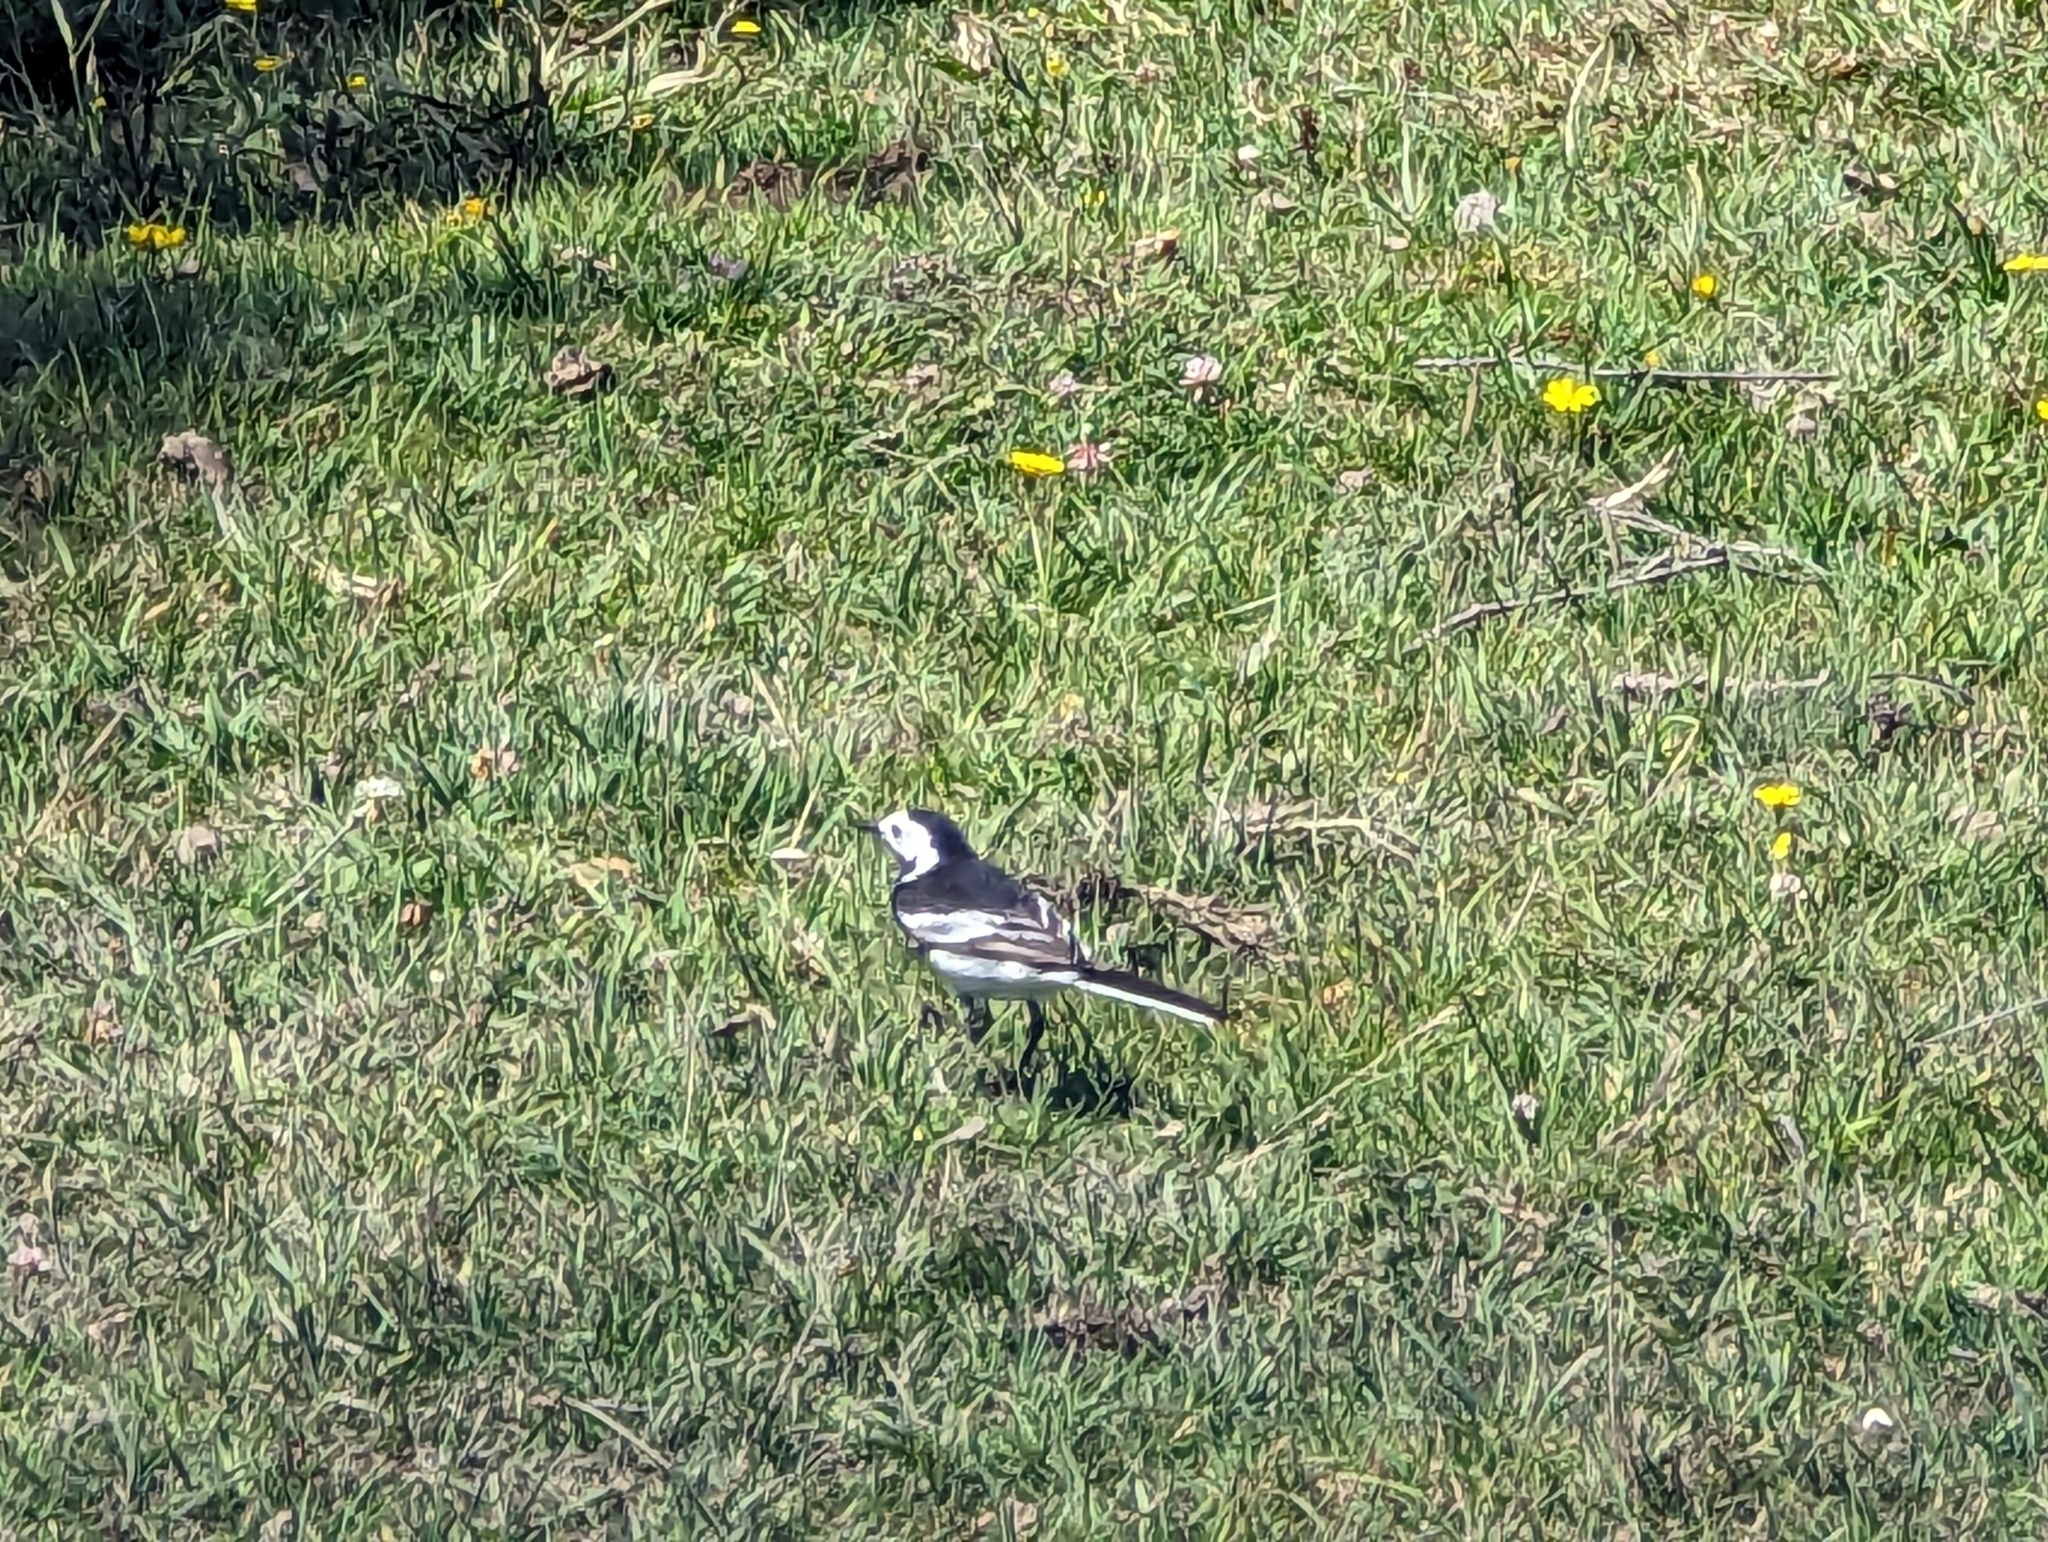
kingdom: Animalia
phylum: Chordata
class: Aves
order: Passeriformes
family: Motacillidae
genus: Motacilla
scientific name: Motacilla alba
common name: White wagtail
